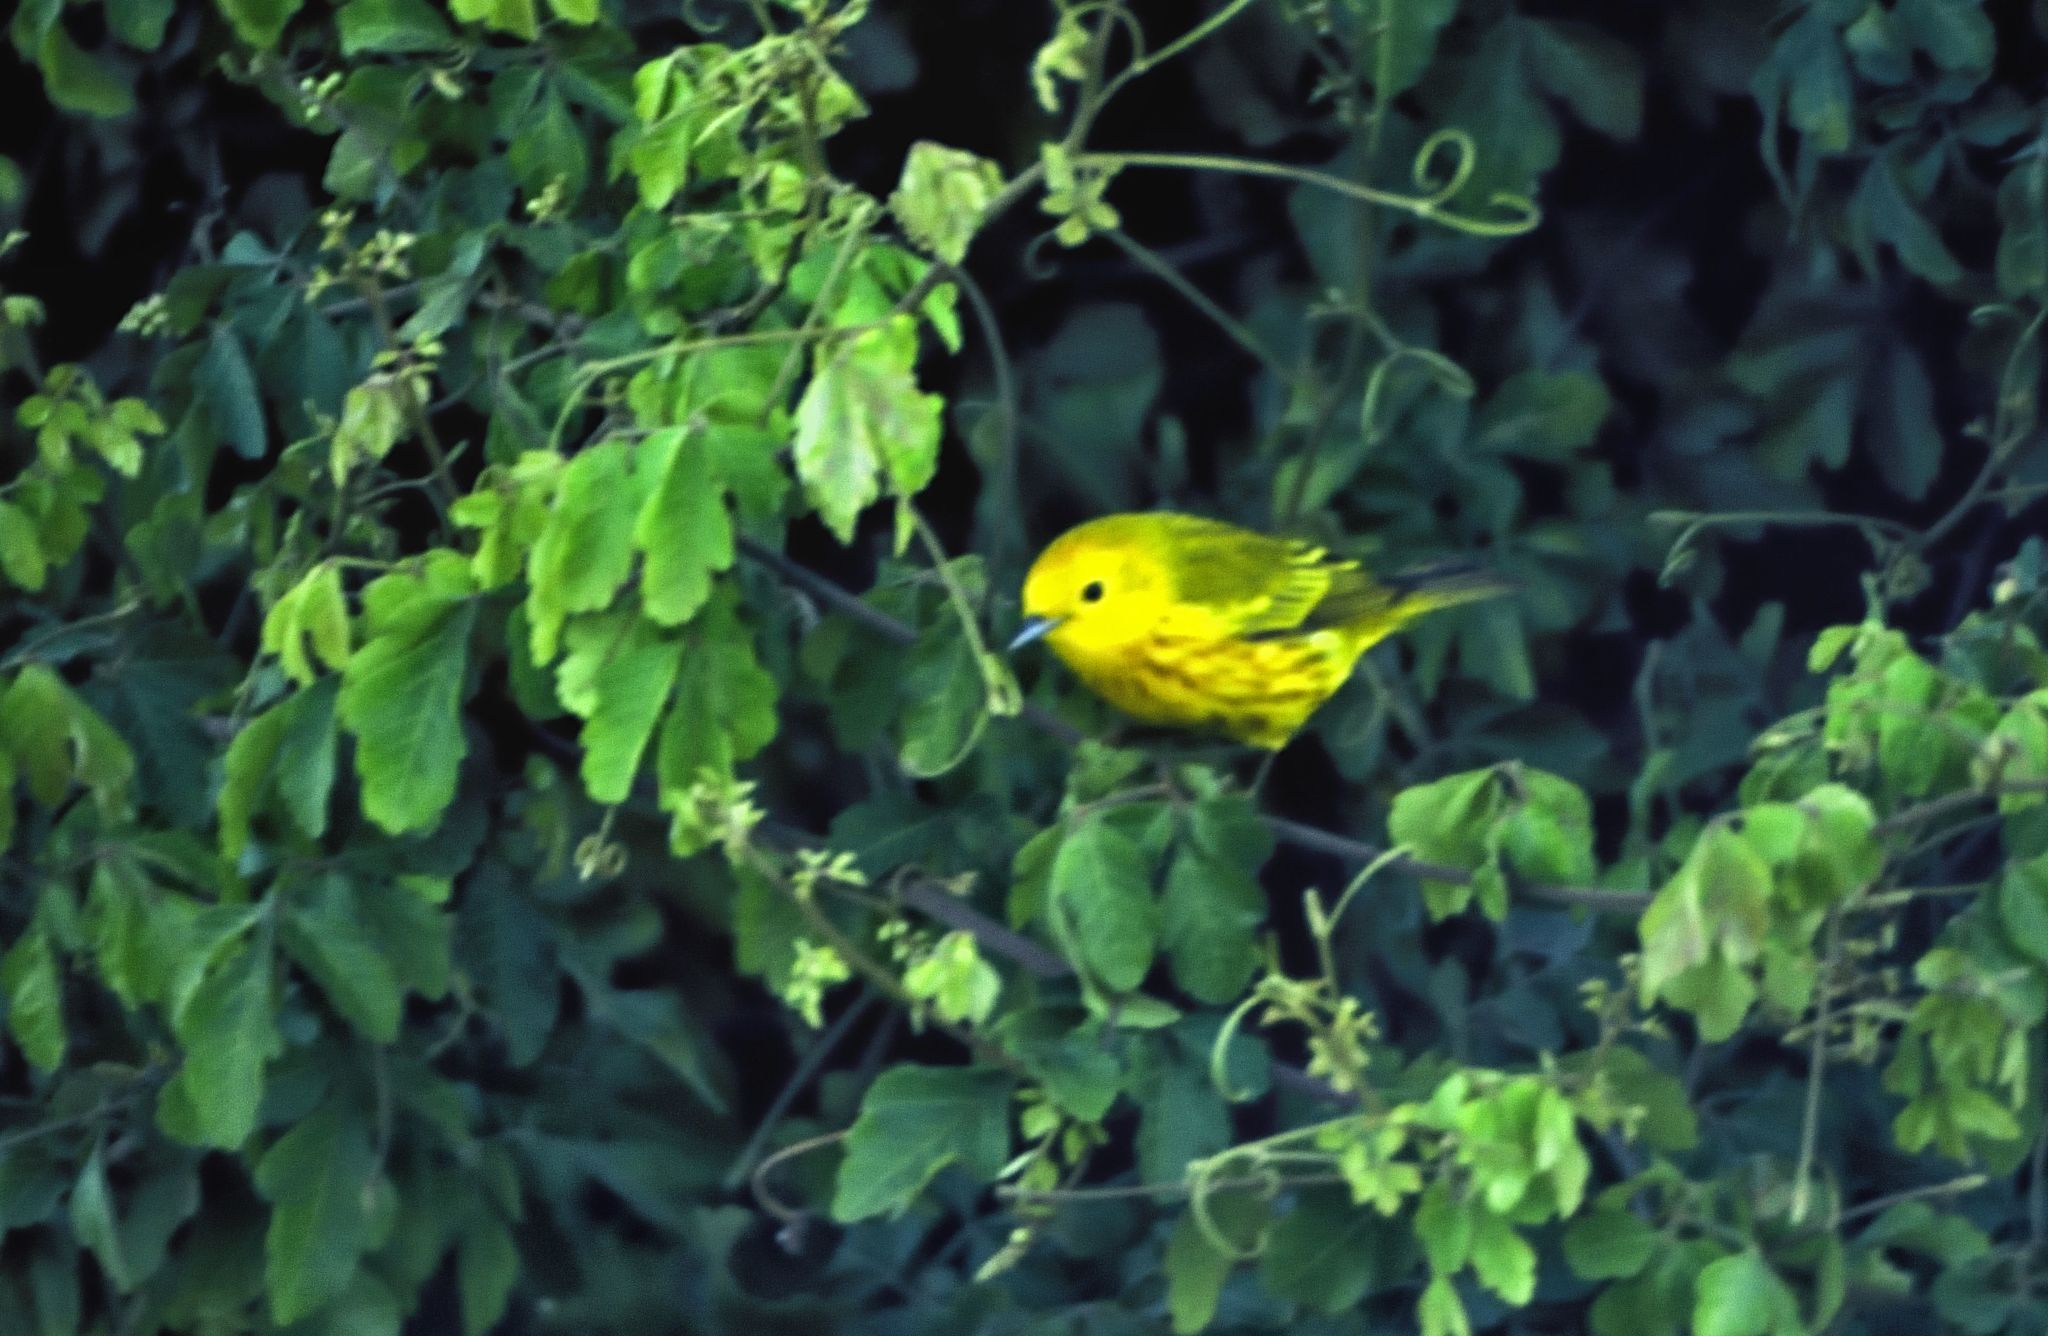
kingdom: Animalia
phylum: Chordata
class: Aves
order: Passeriformes
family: Parulidae
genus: Setophaga
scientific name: Setophaga petechia
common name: Yellow warbler
